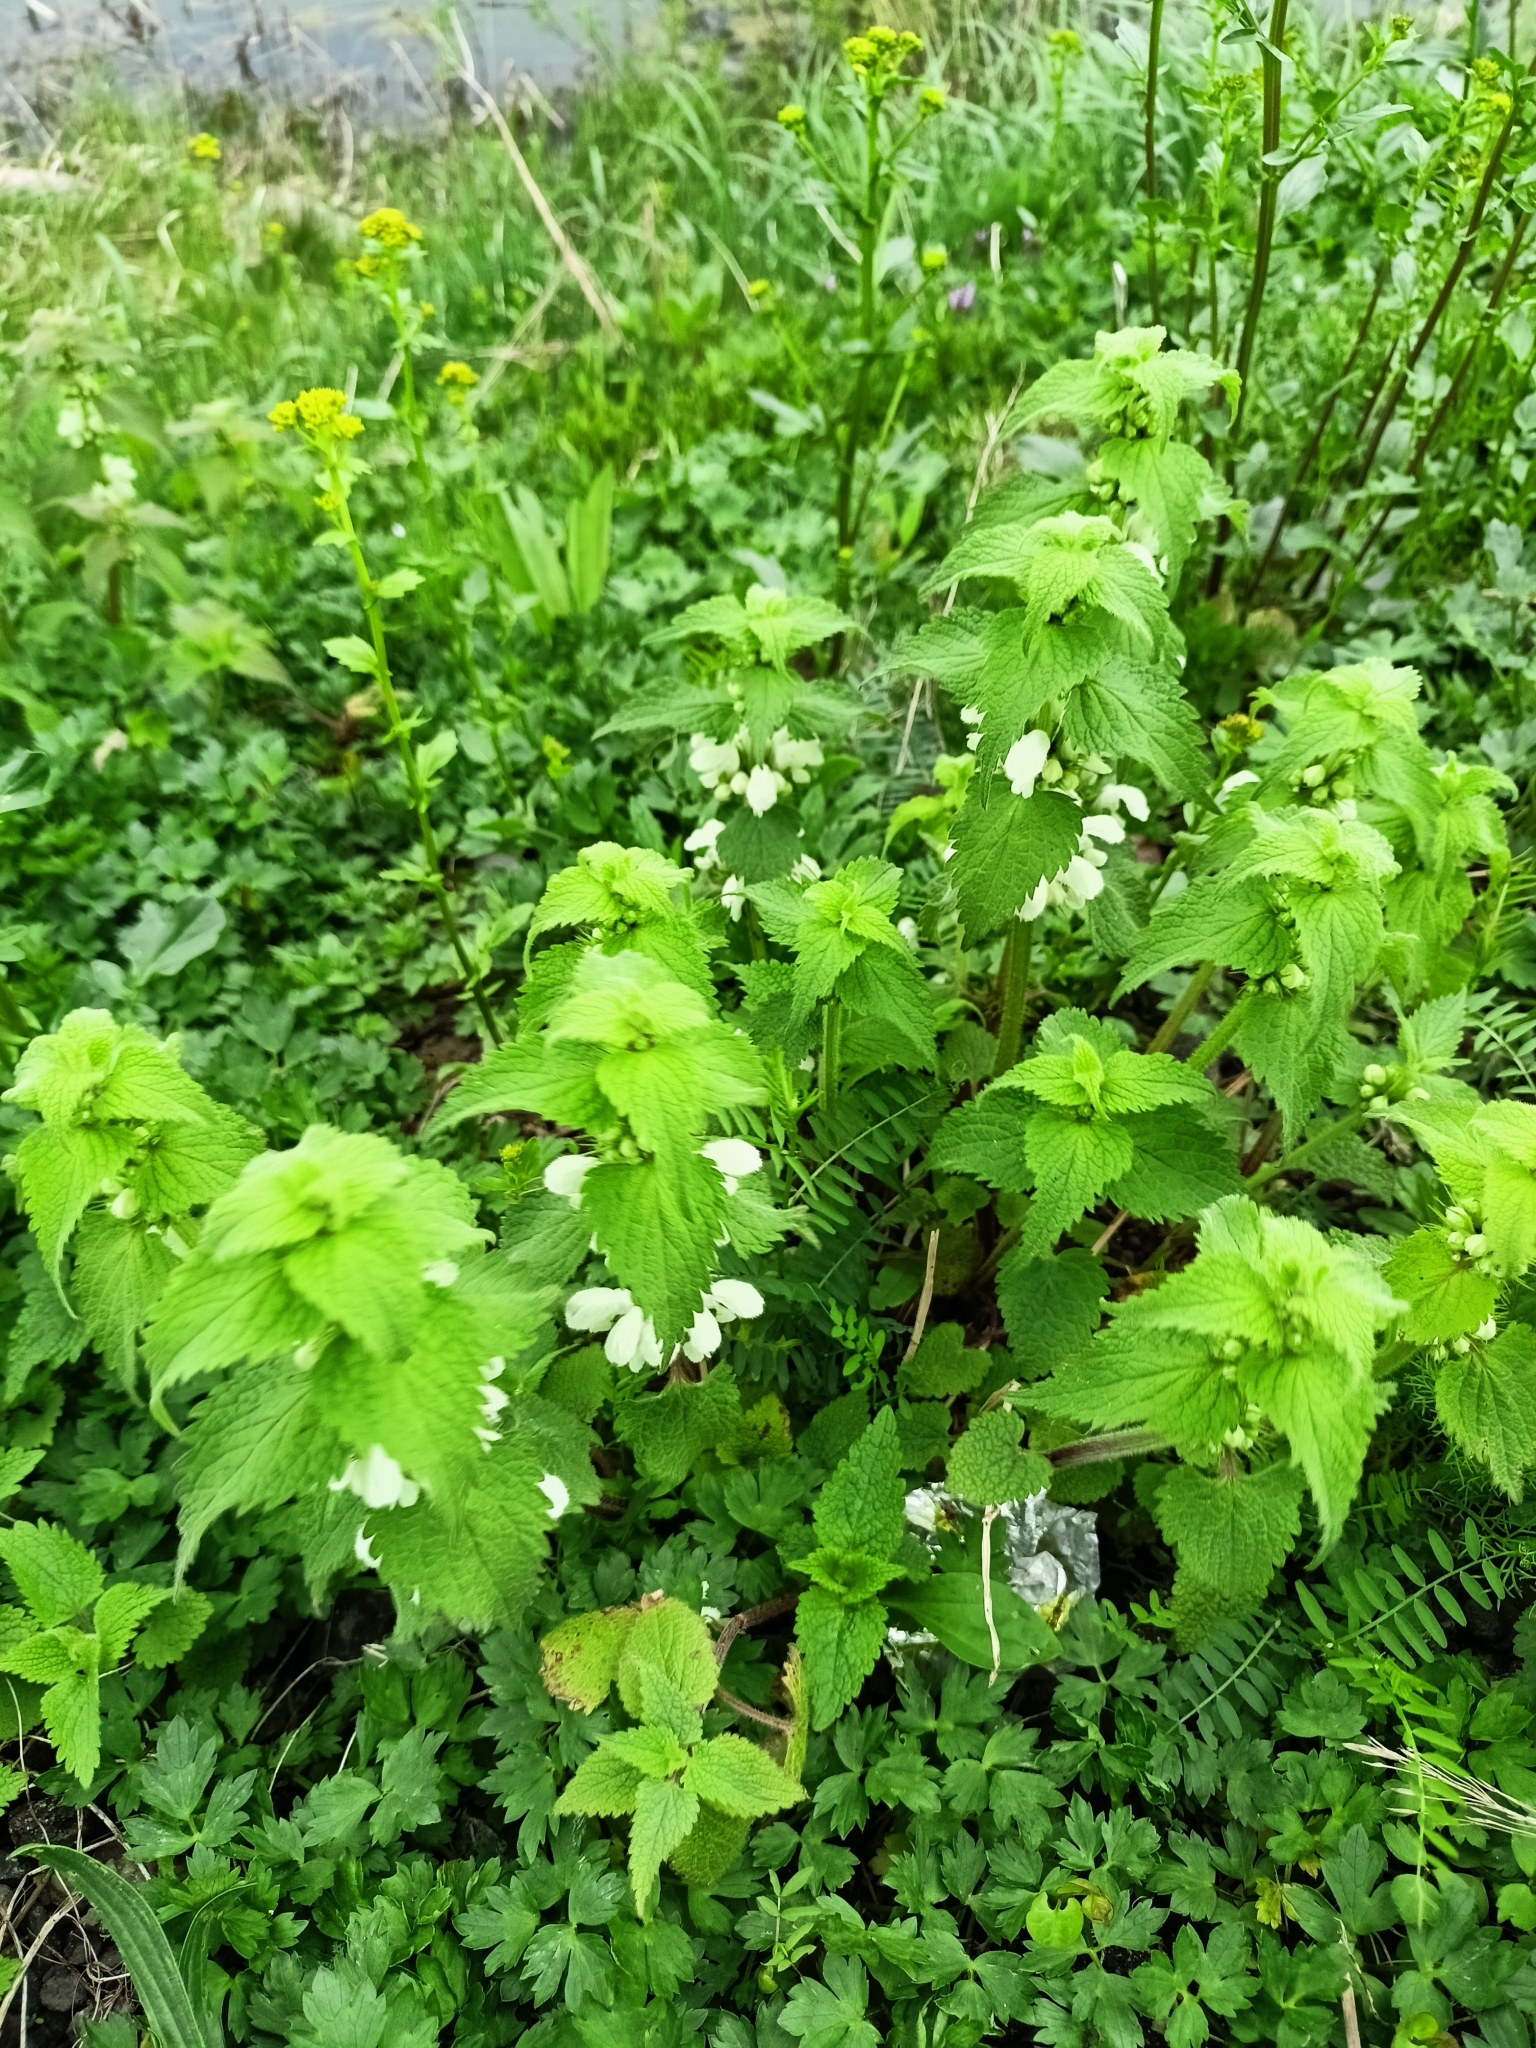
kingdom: Plantae
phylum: Tracheophyta
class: Magnoliopsida
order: Lamiales
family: Lamiaceae
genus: Lamium
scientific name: Lamium album
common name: White dead-nettle
